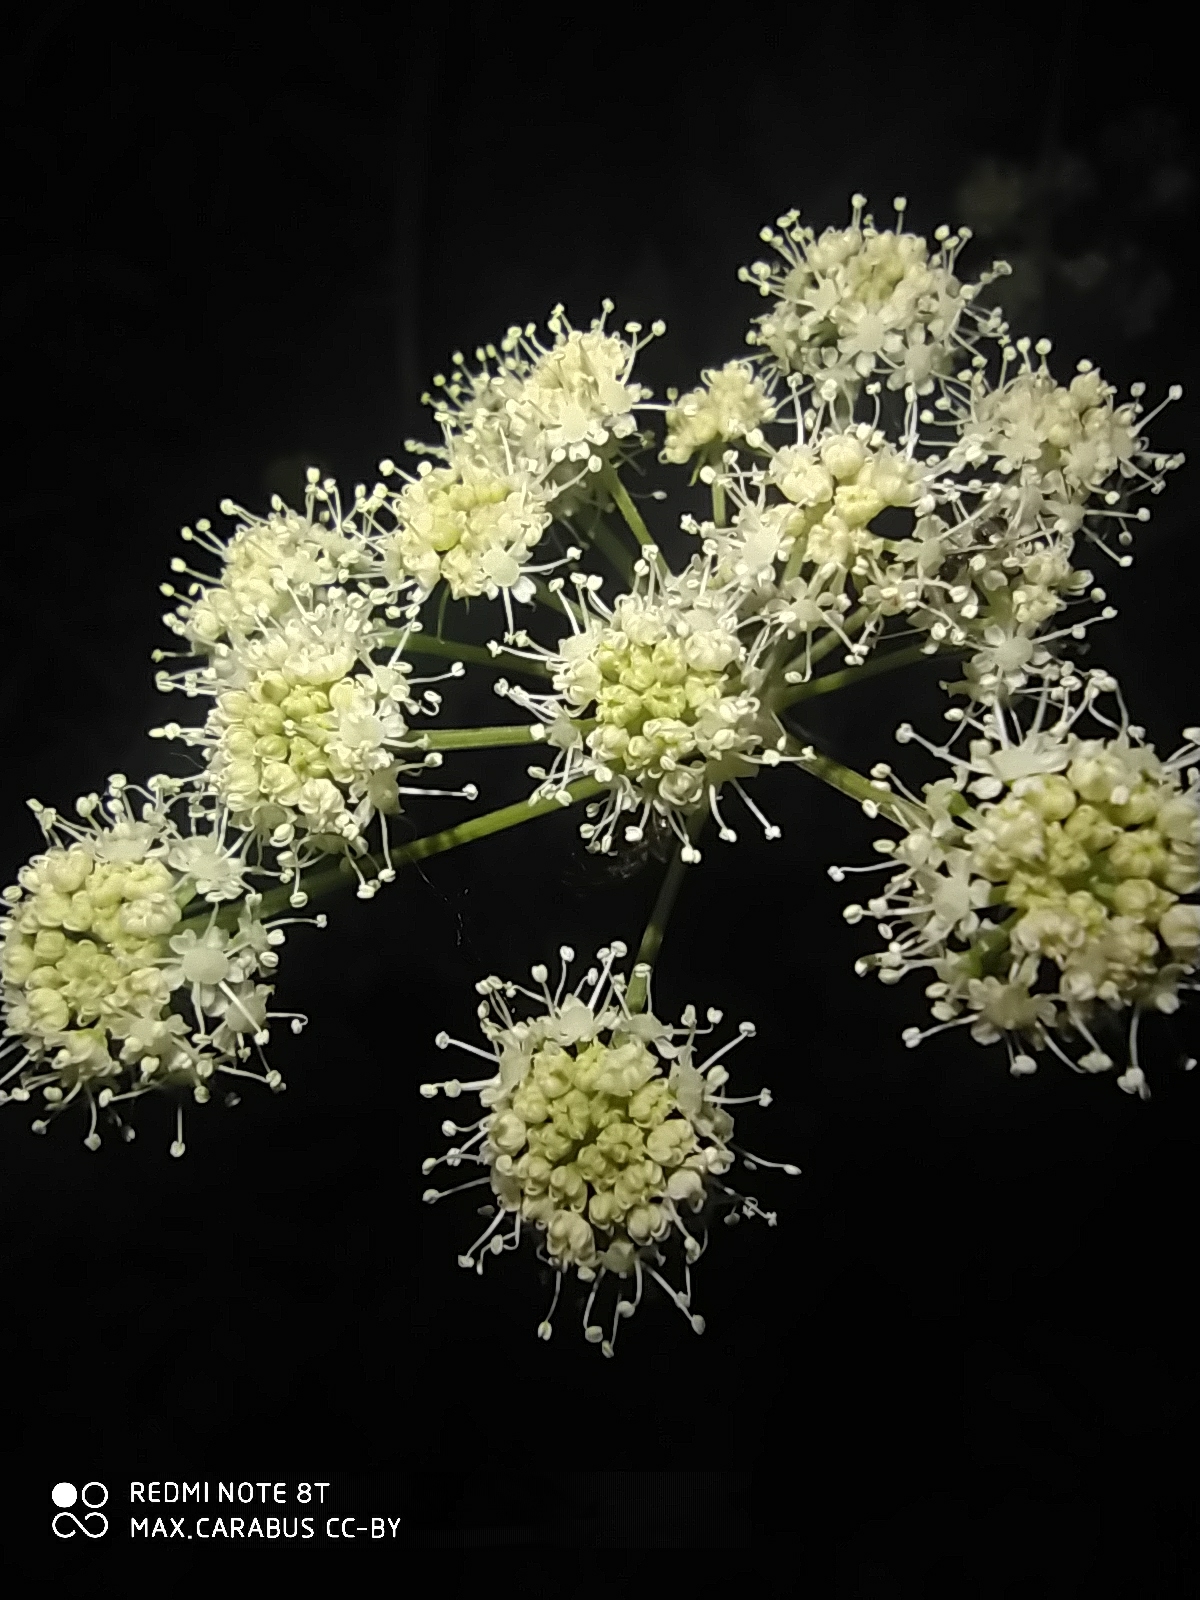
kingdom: Plantae
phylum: Tracheophyta
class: Magnoliopsida
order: Apiales
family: Apiaceae
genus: Angelica
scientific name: Angelica sylvestris
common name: Wild angelica
